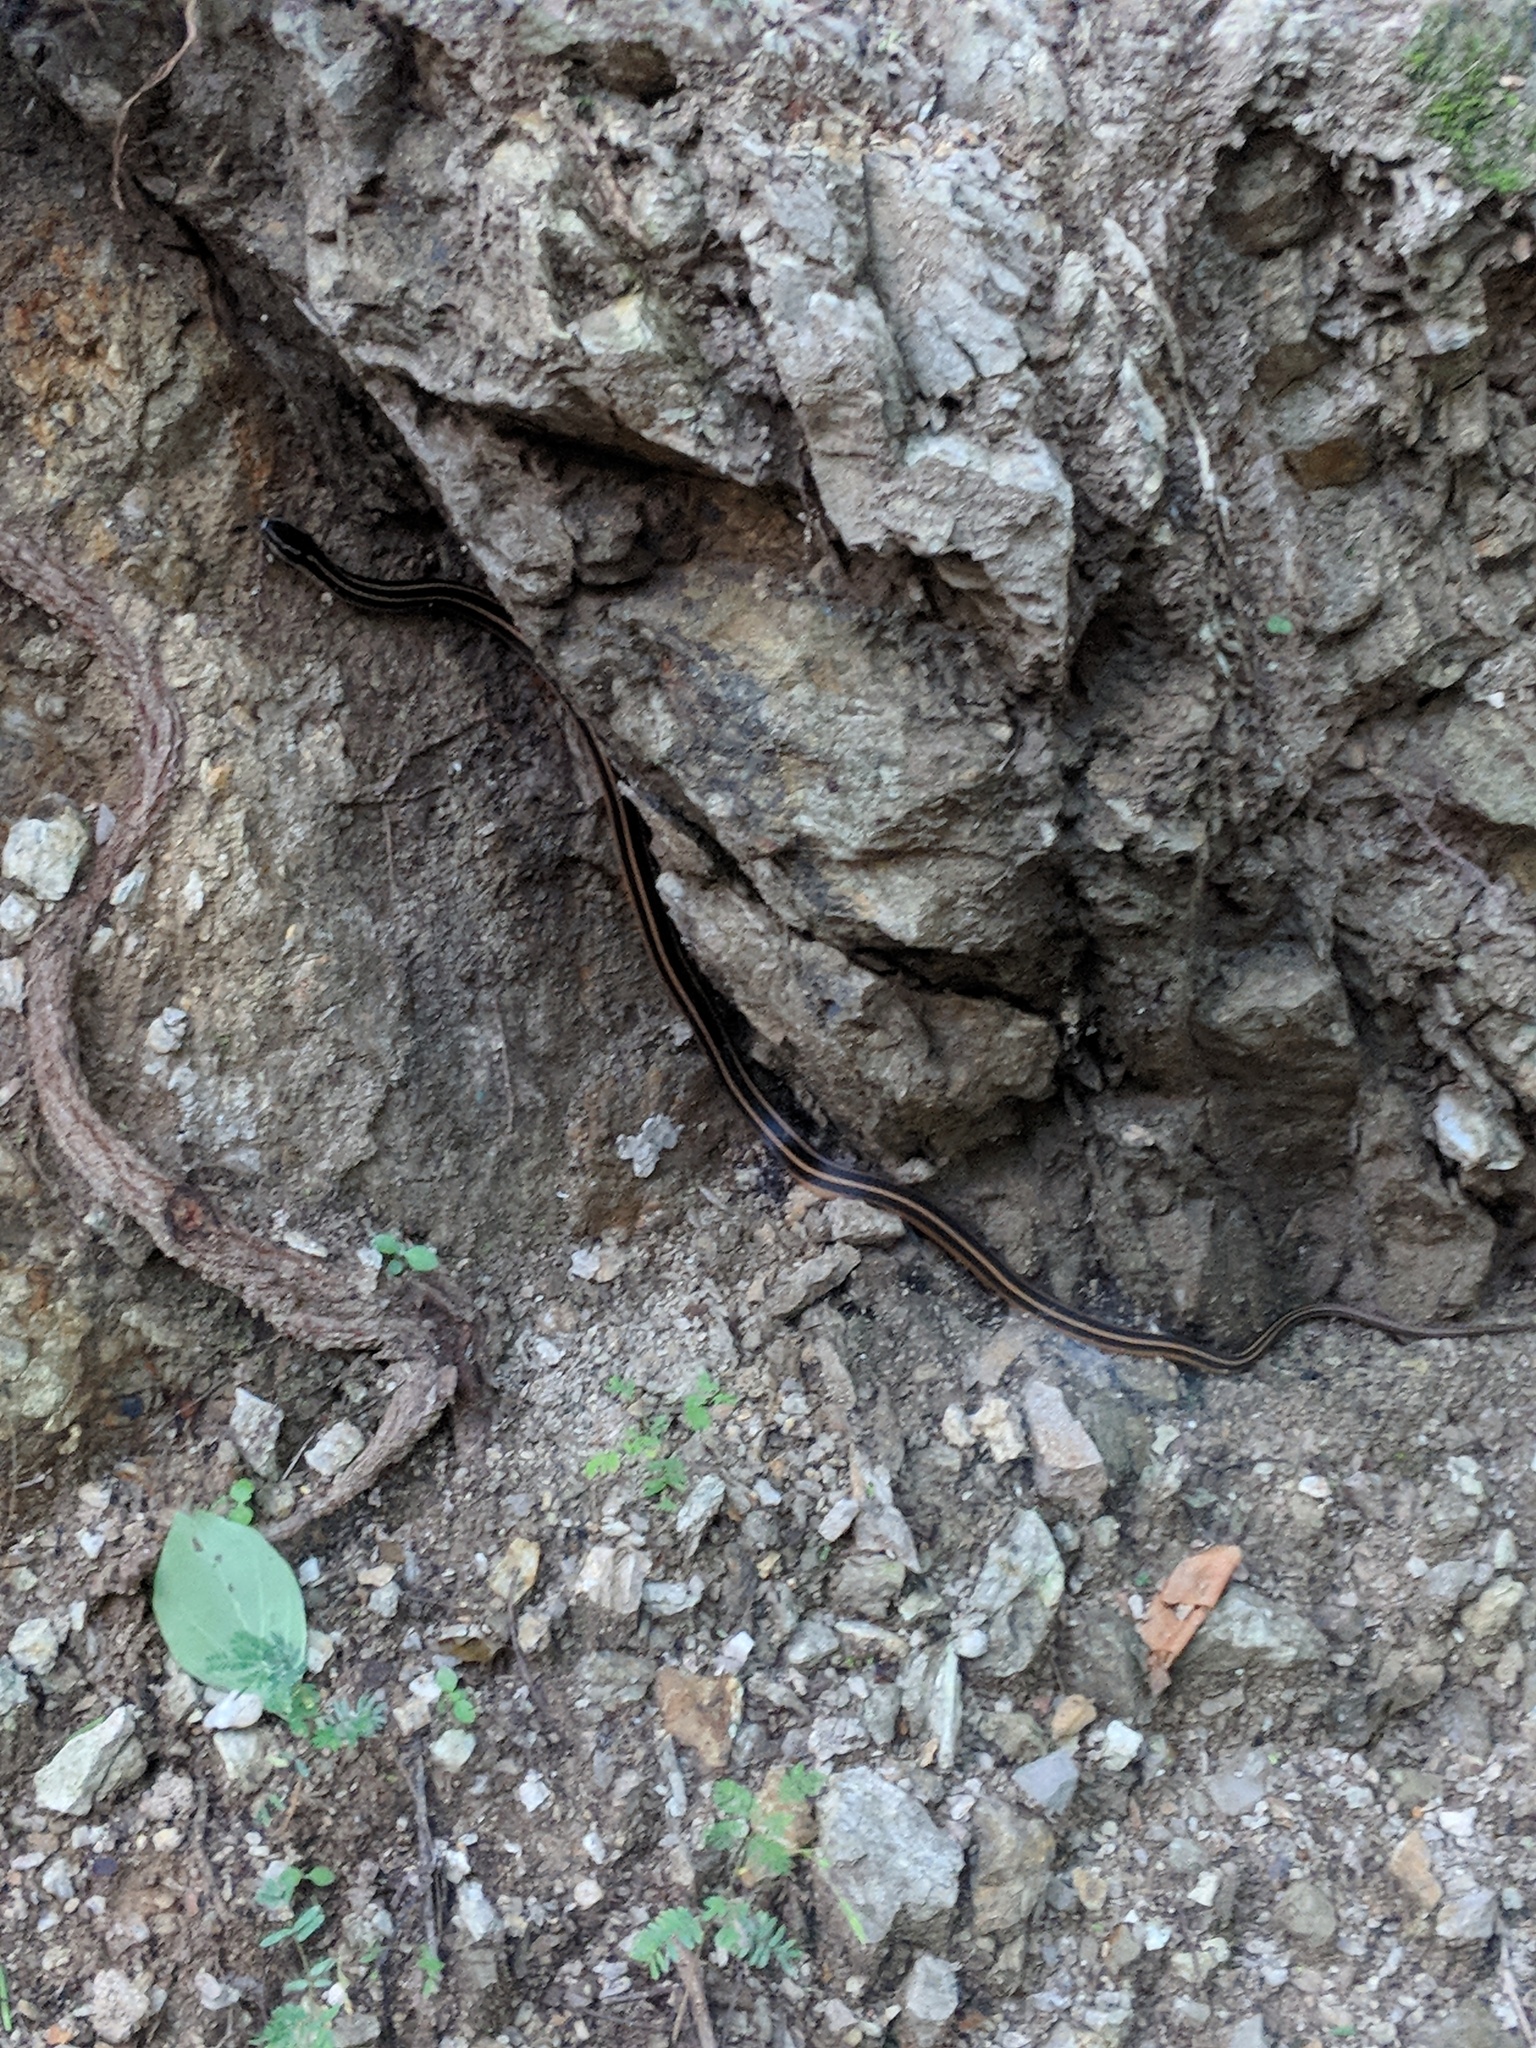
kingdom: Animalia
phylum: Chordata
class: Squamata
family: Colubridae
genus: Coniophanes
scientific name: Coniophanes piceivittis
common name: Cope's black-striped snake
